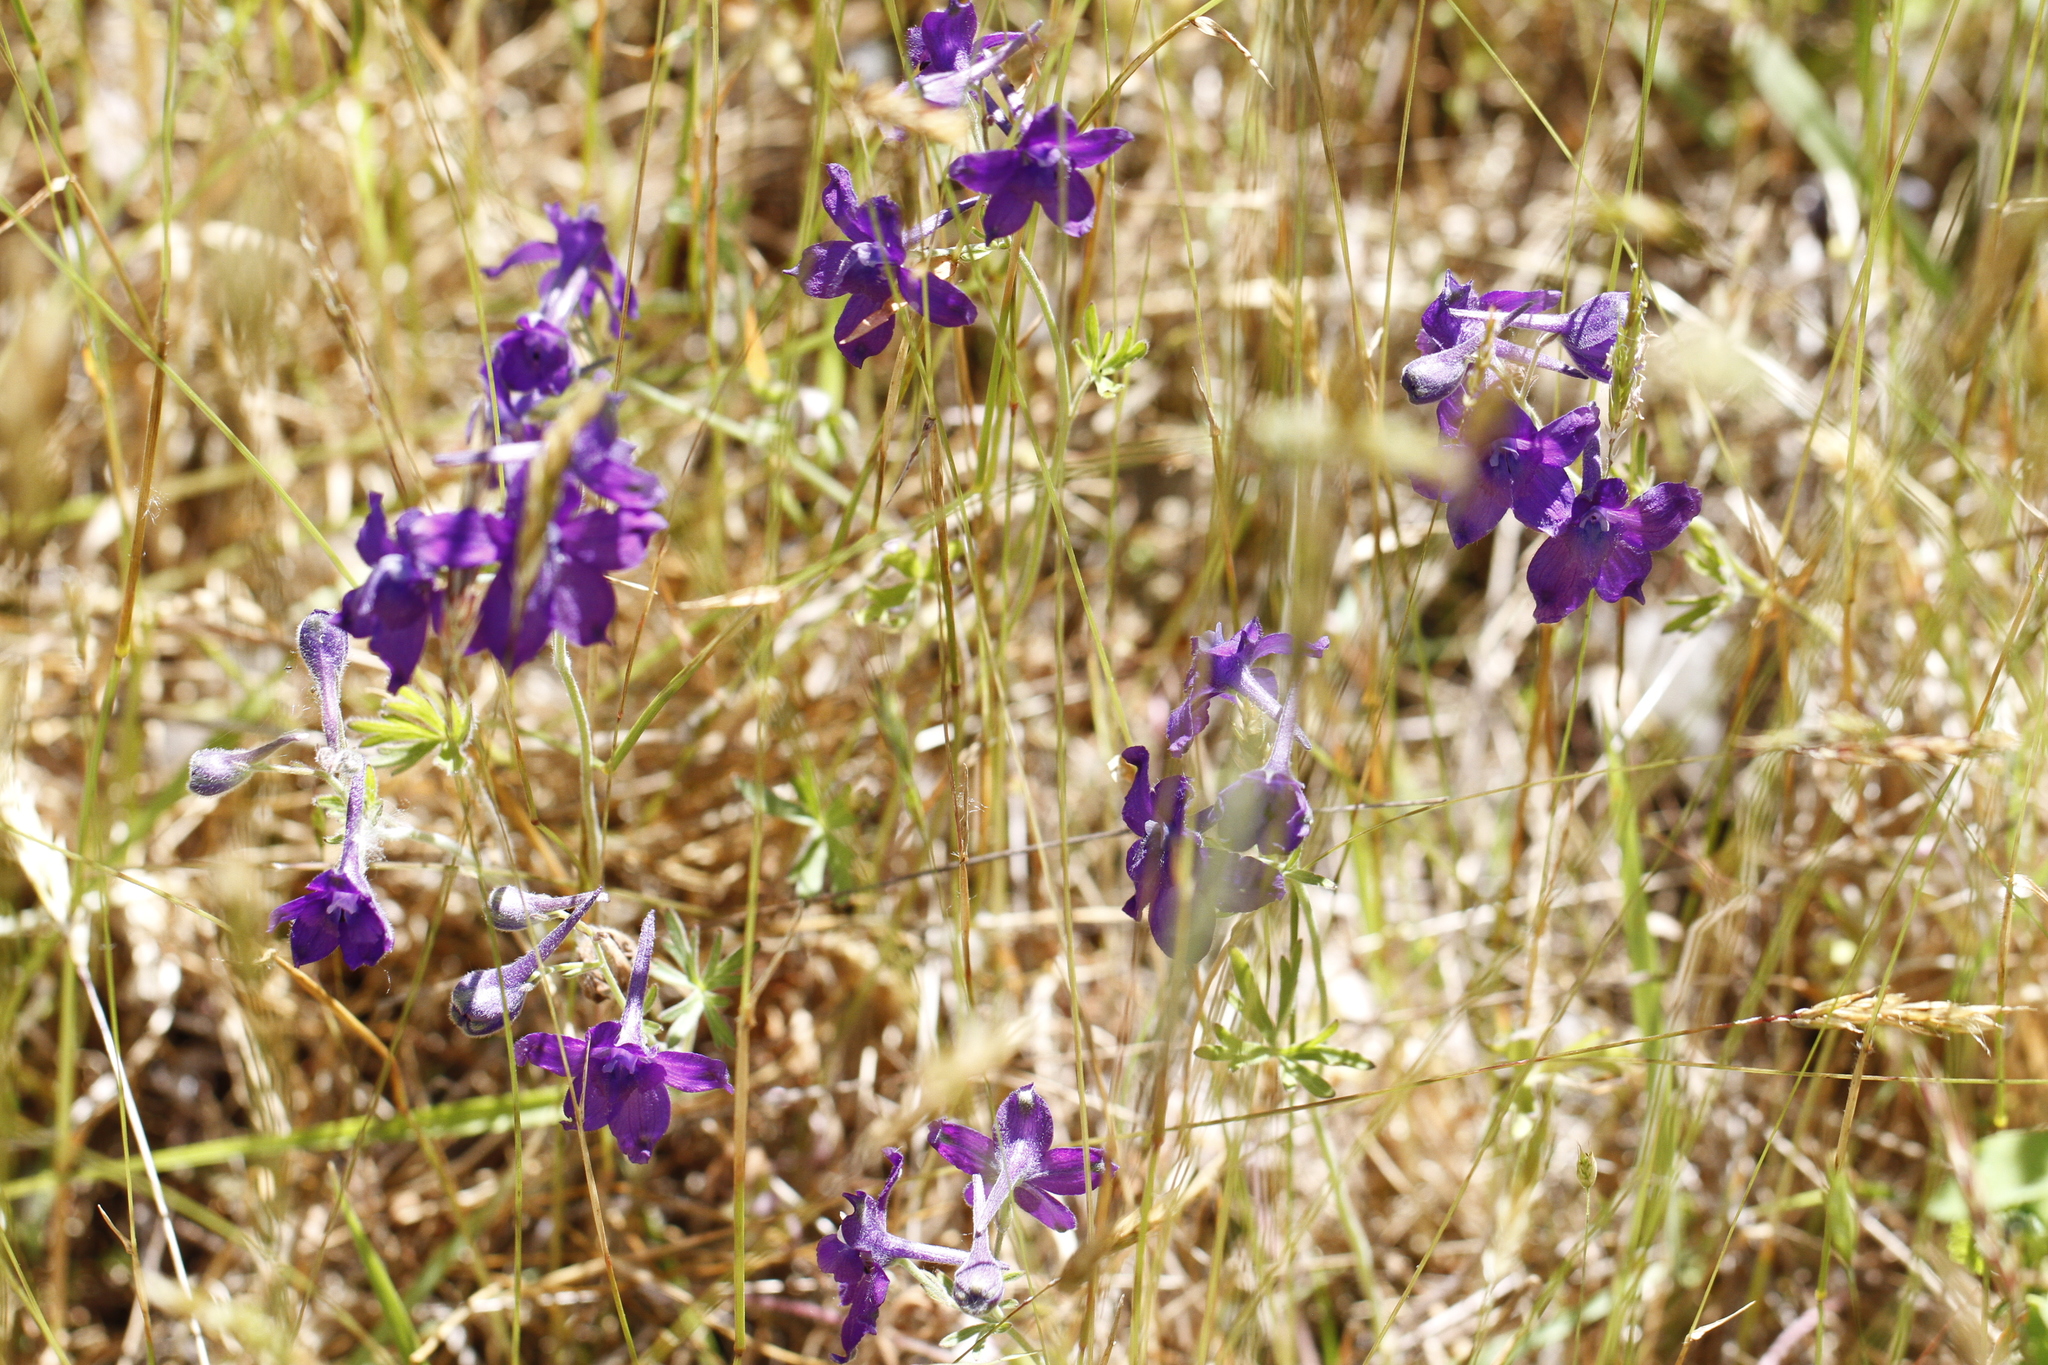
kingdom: Plantae
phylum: Tracheophyta
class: Magnoliopsida
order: Ranunculales
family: Ranunculaceae
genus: Delphinium
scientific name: Delphinium menziesii
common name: Menzies's larkspur
